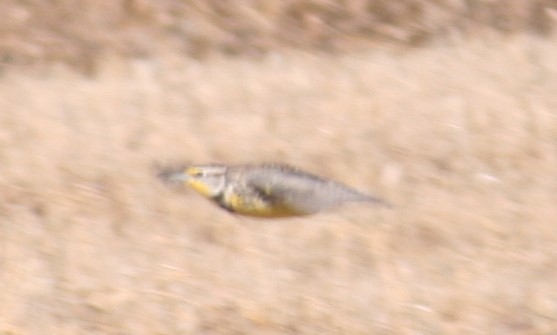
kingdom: Animalia
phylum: Chordata
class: Aves
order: Passeriformes
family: Icteridae
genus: Sturnella
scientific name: Sturnella neglecta
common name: Western meadowlark
